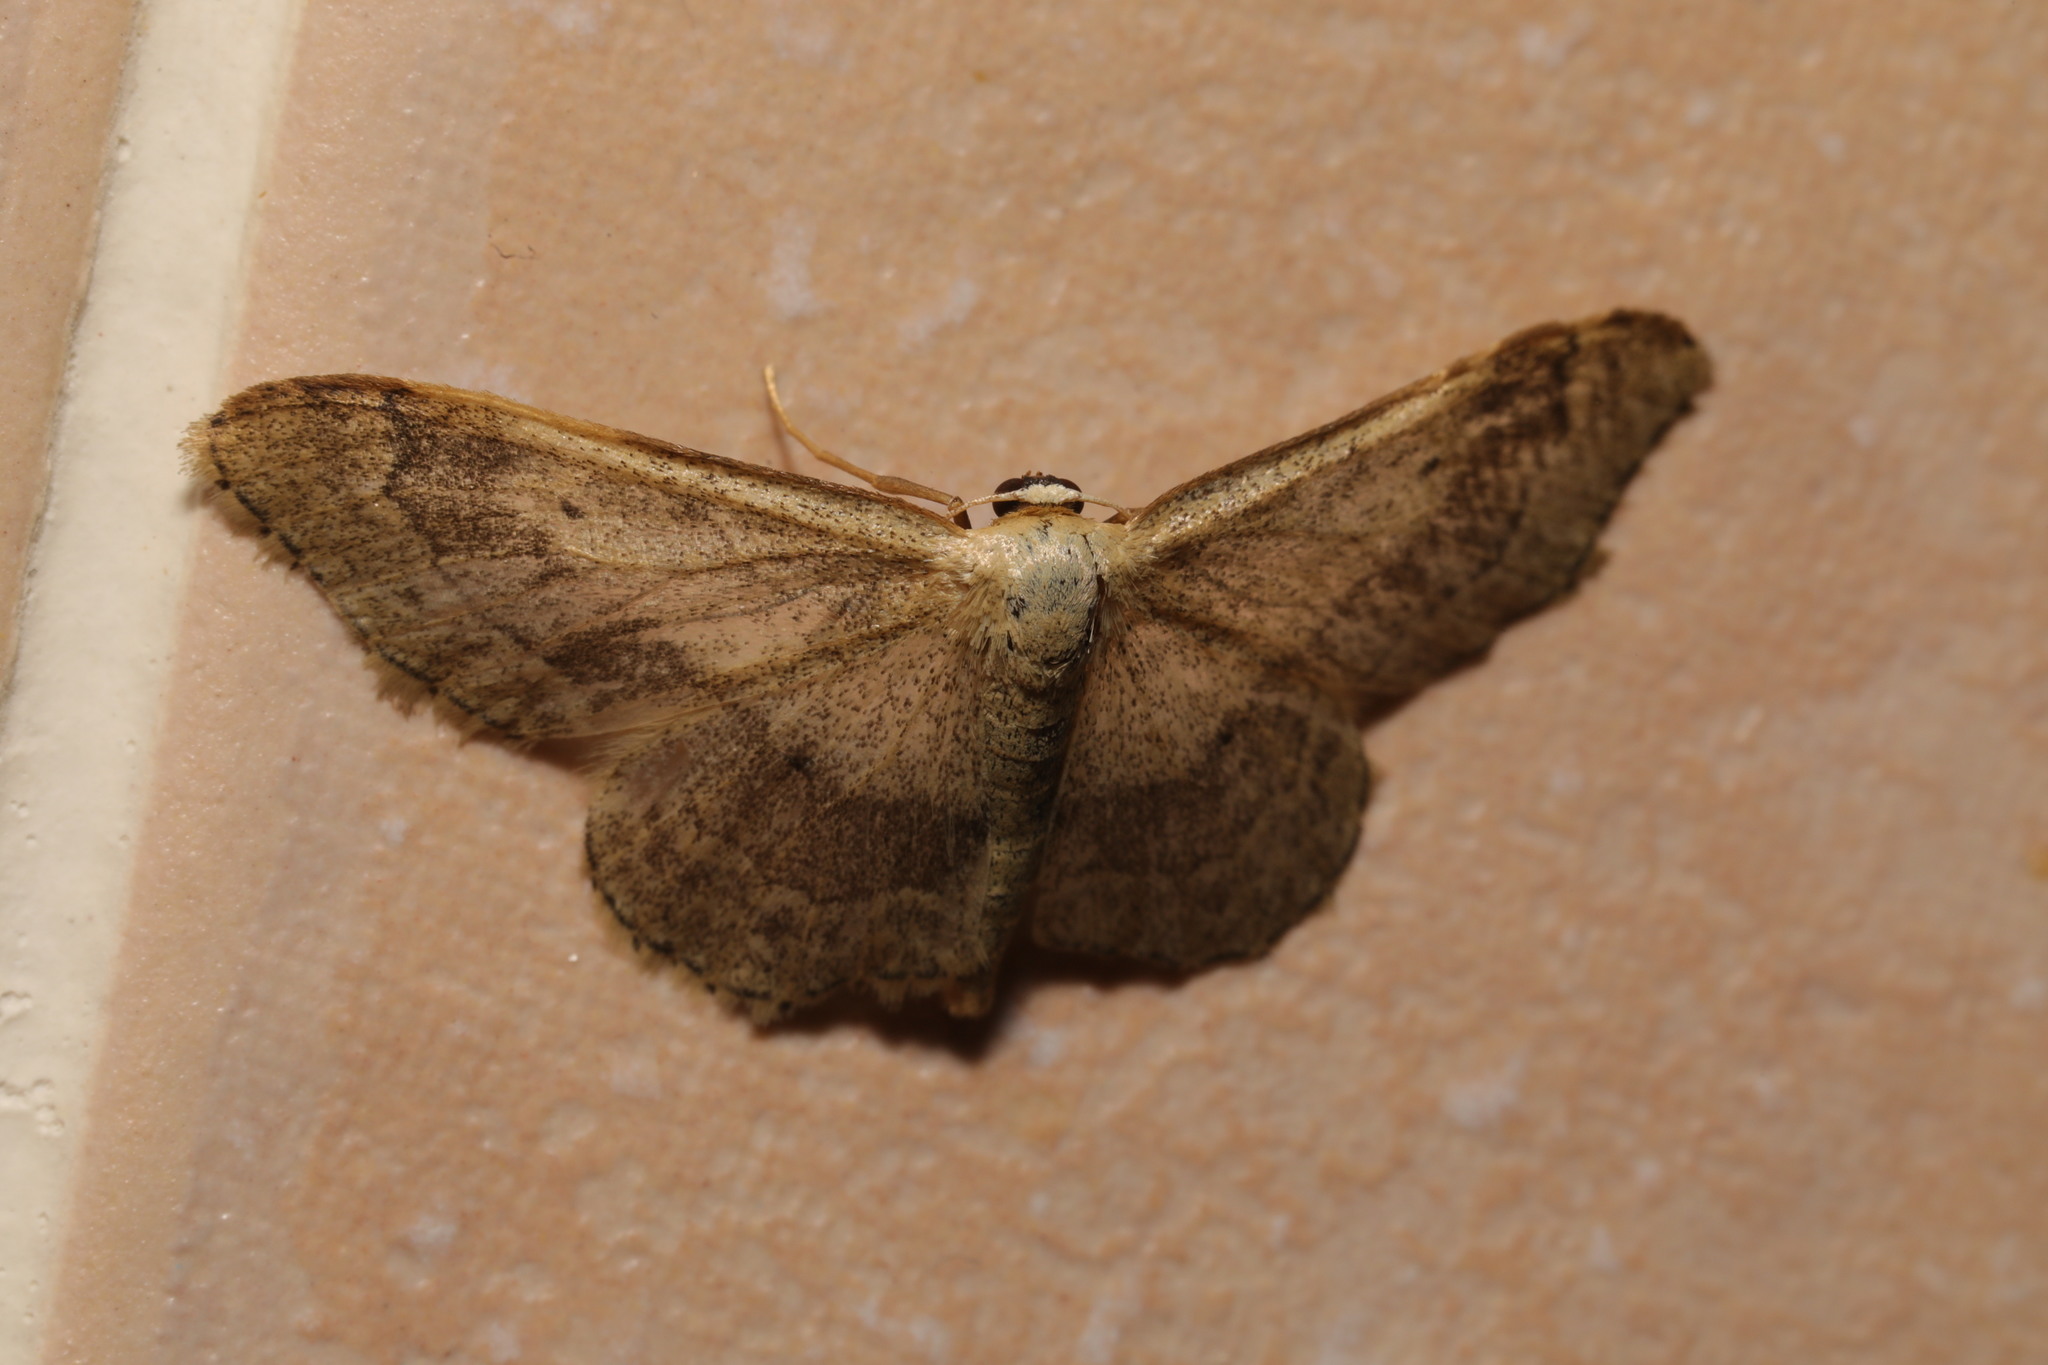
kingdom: Animalia
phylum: Arthropoda
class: Insecta
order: Lepidoptera
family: Geometridae
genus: Idaea
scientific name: Idaea aversata
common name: Riband wave
